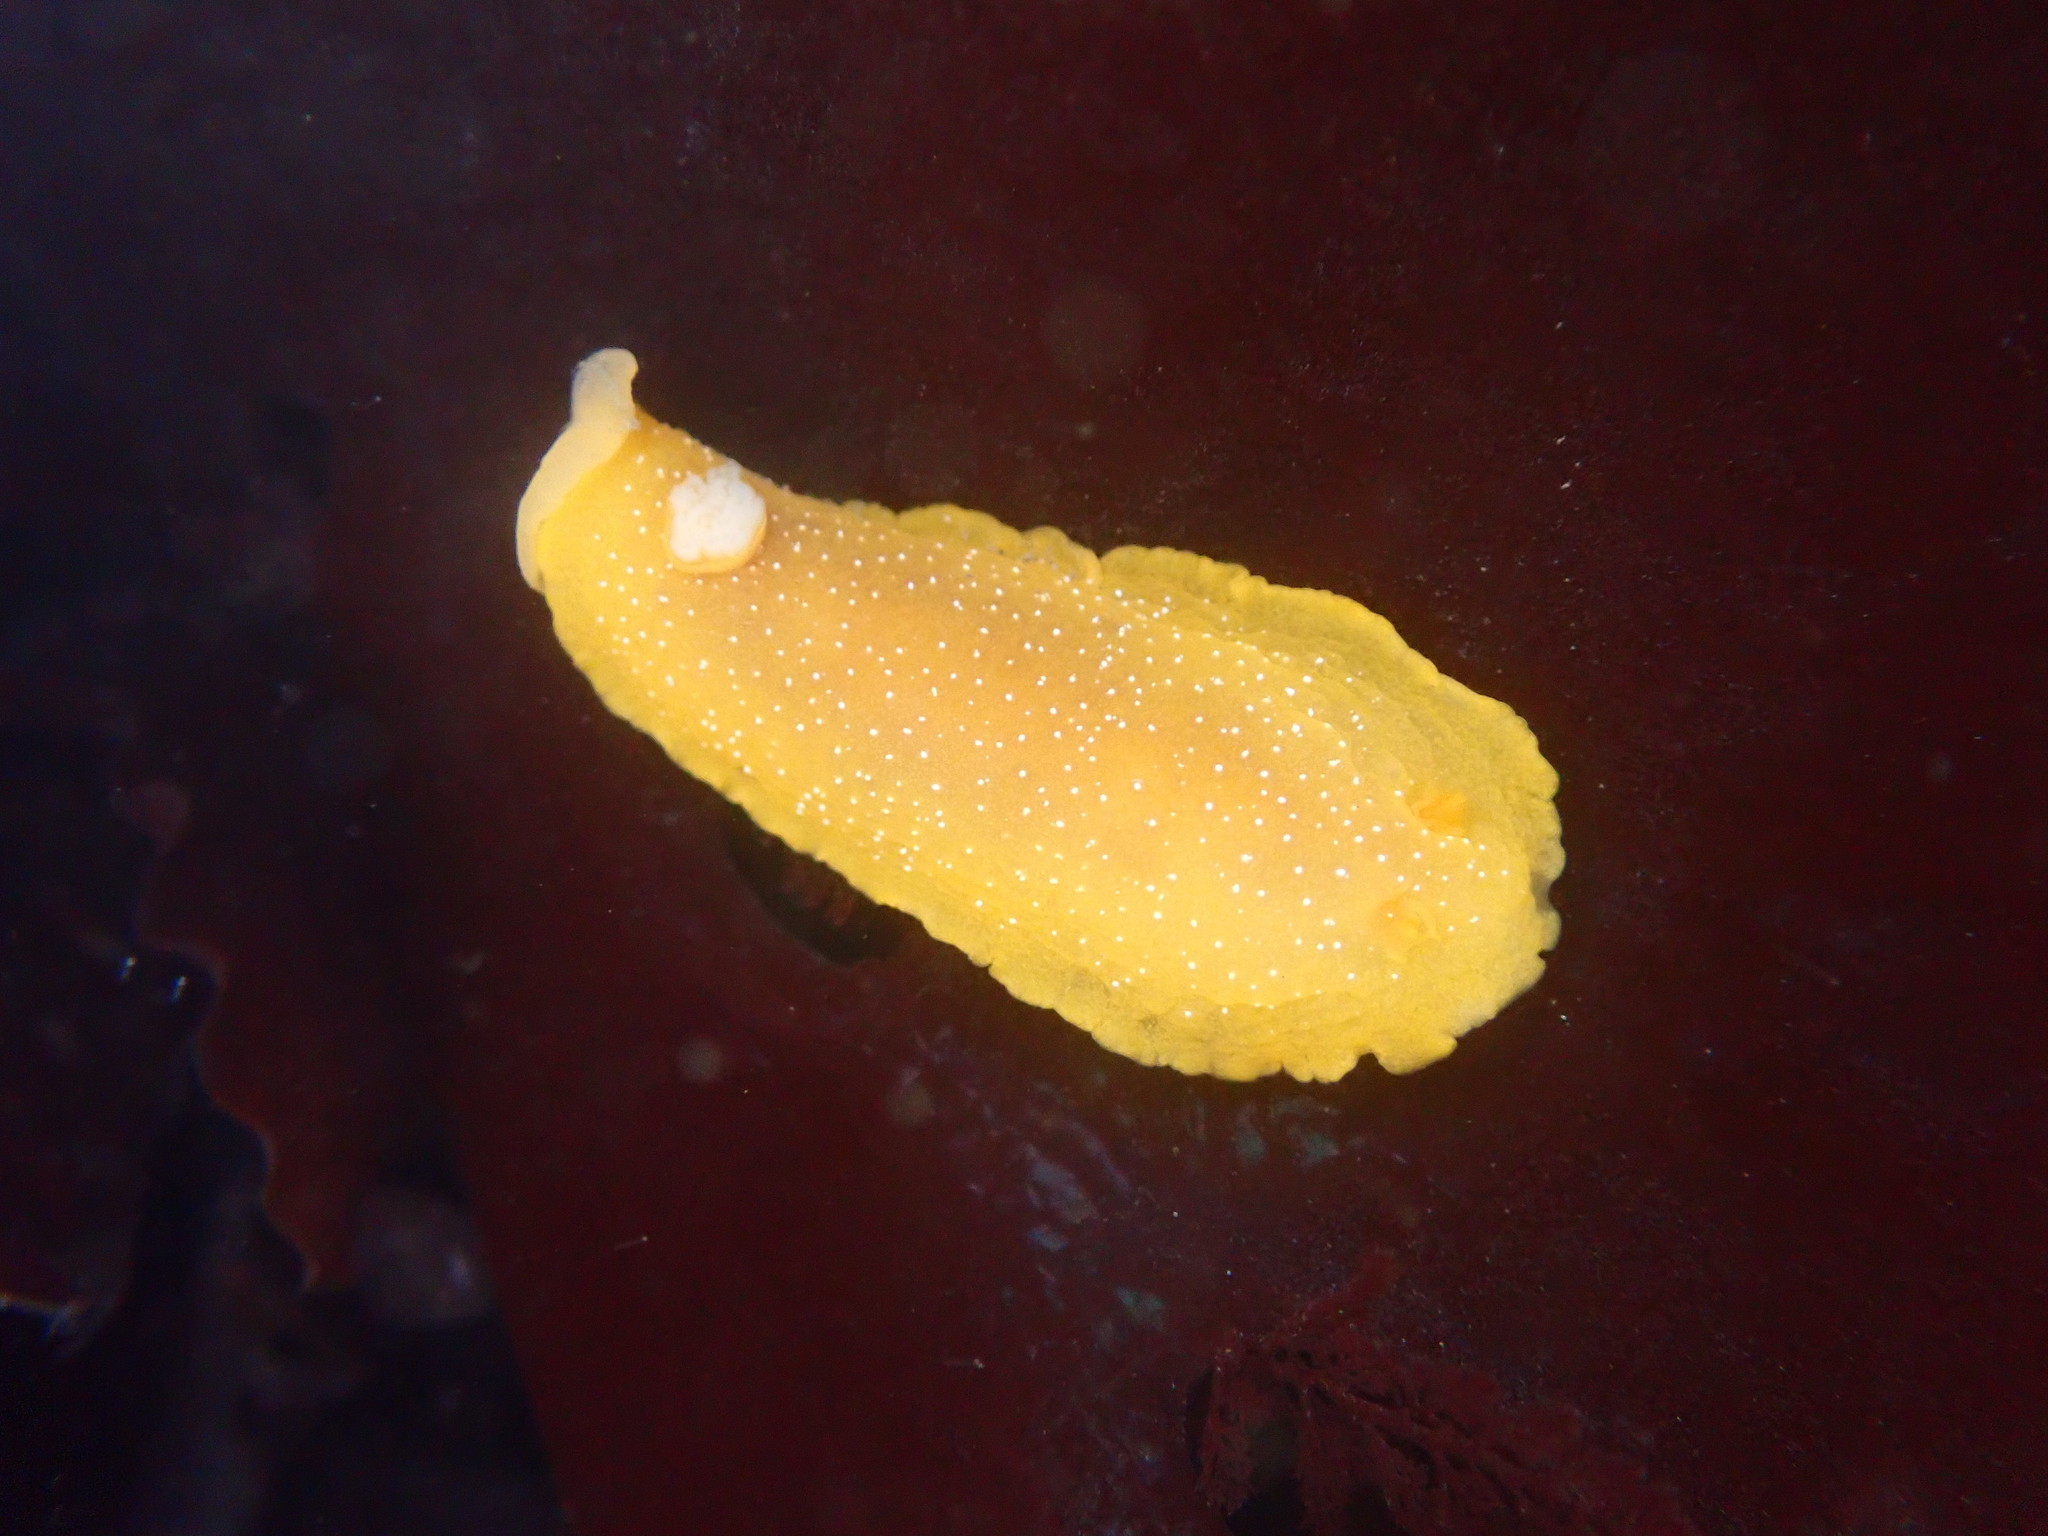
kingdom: Animalia
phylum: Mollusca
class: Gastropoda
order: Nudibranchia
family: Dendrodorididae
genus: Doriopsilla
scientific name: Doriopsilla fulva
